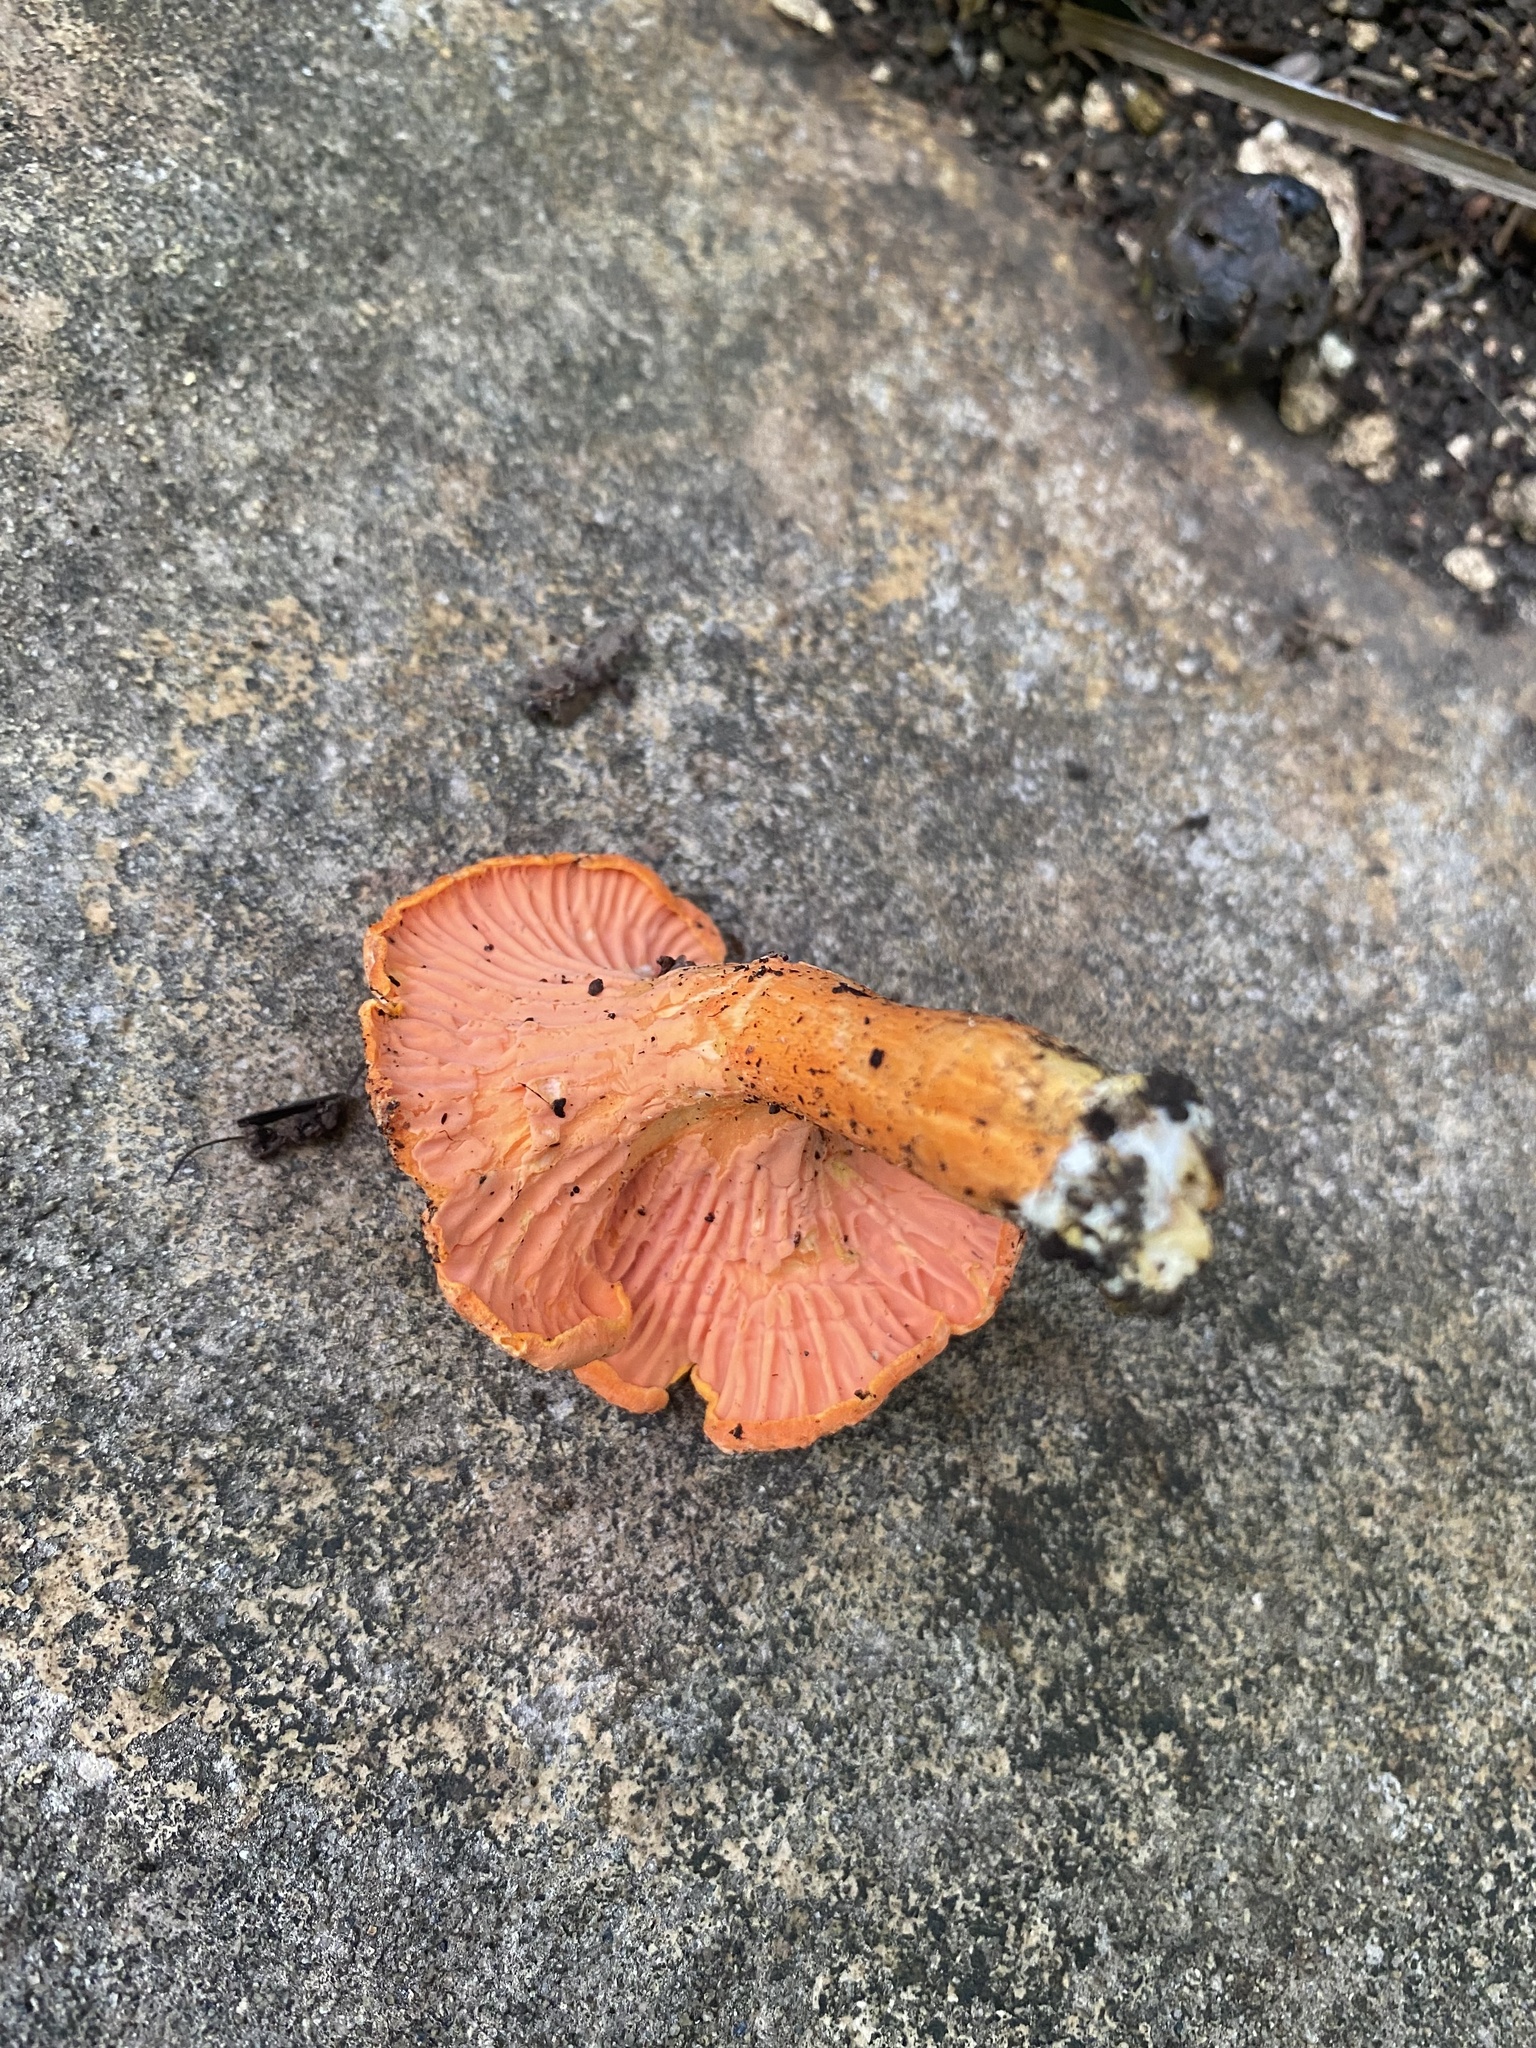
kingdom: Fungi
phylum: Basidiomycota
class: Agaricomycetes
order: Cantharellales
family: Hydnaceae
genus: Cantharellus
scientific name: Cantharellus coccolobae
